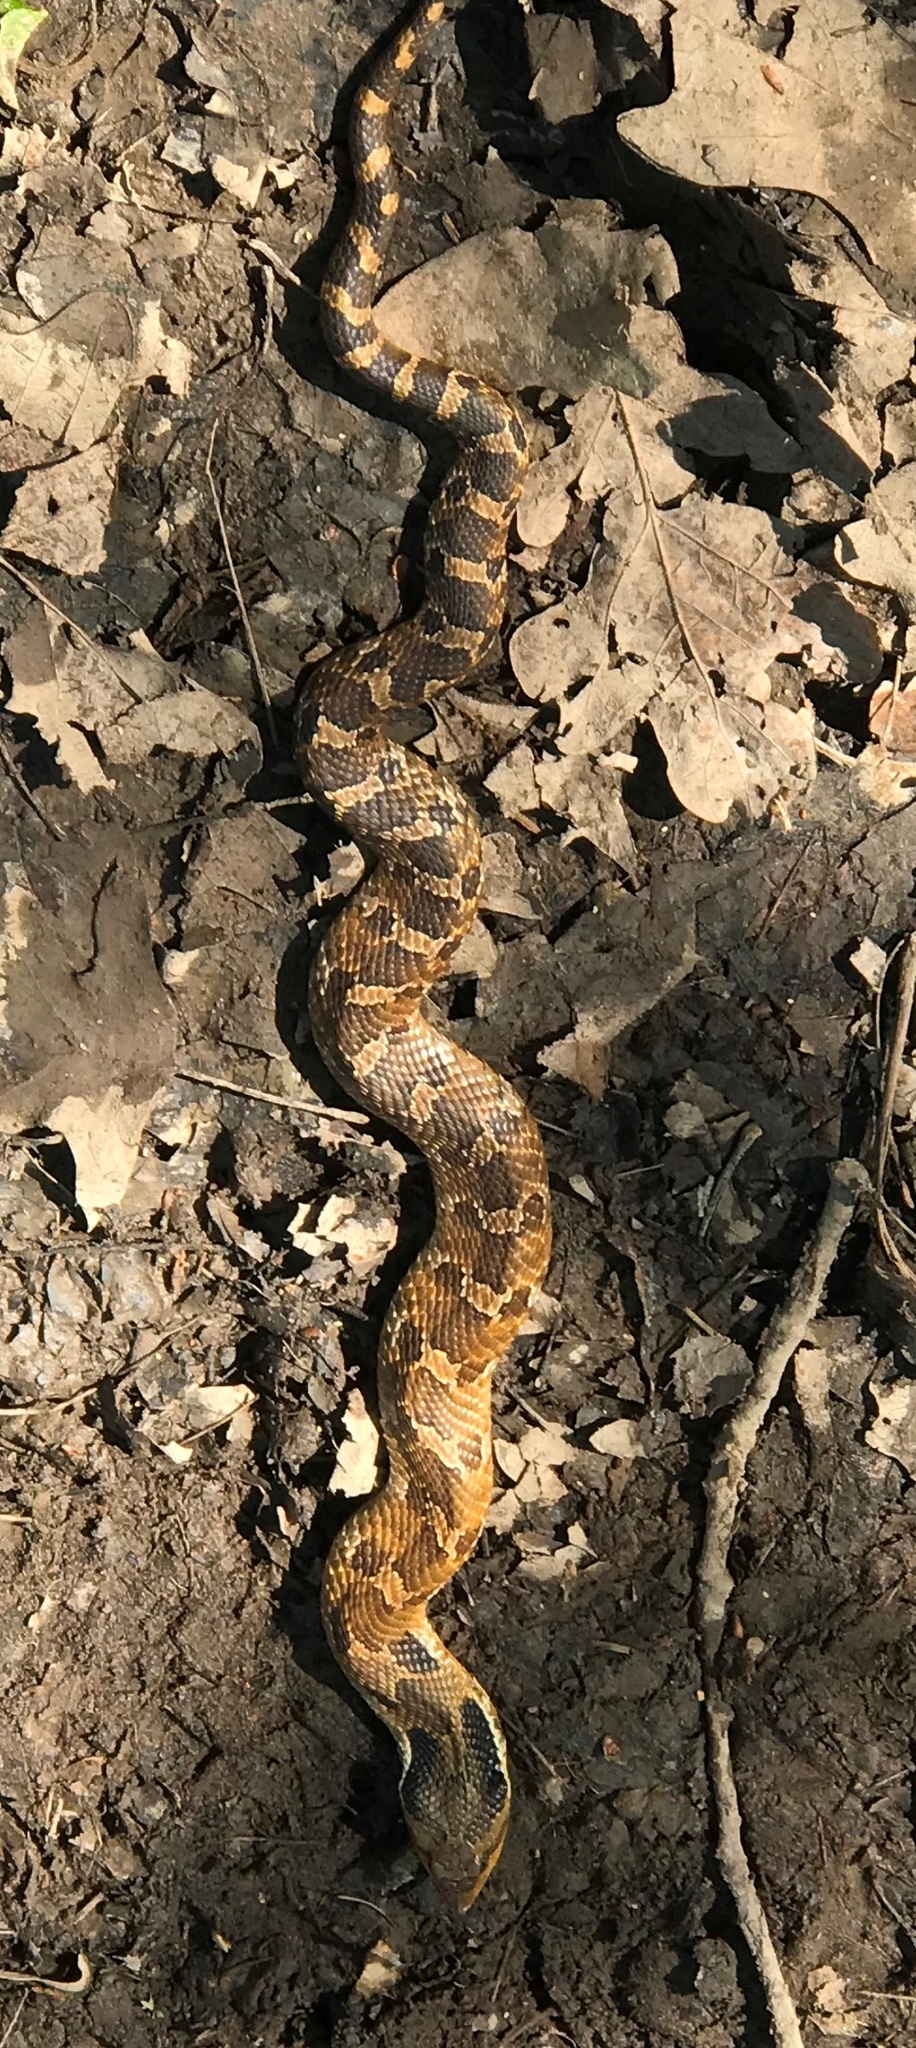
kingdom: Animalia
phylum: Chordata
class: Squamata
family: Colubridae
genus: Heterodon
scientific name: Heterodon platirhinos
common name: Eastern hognose snake
